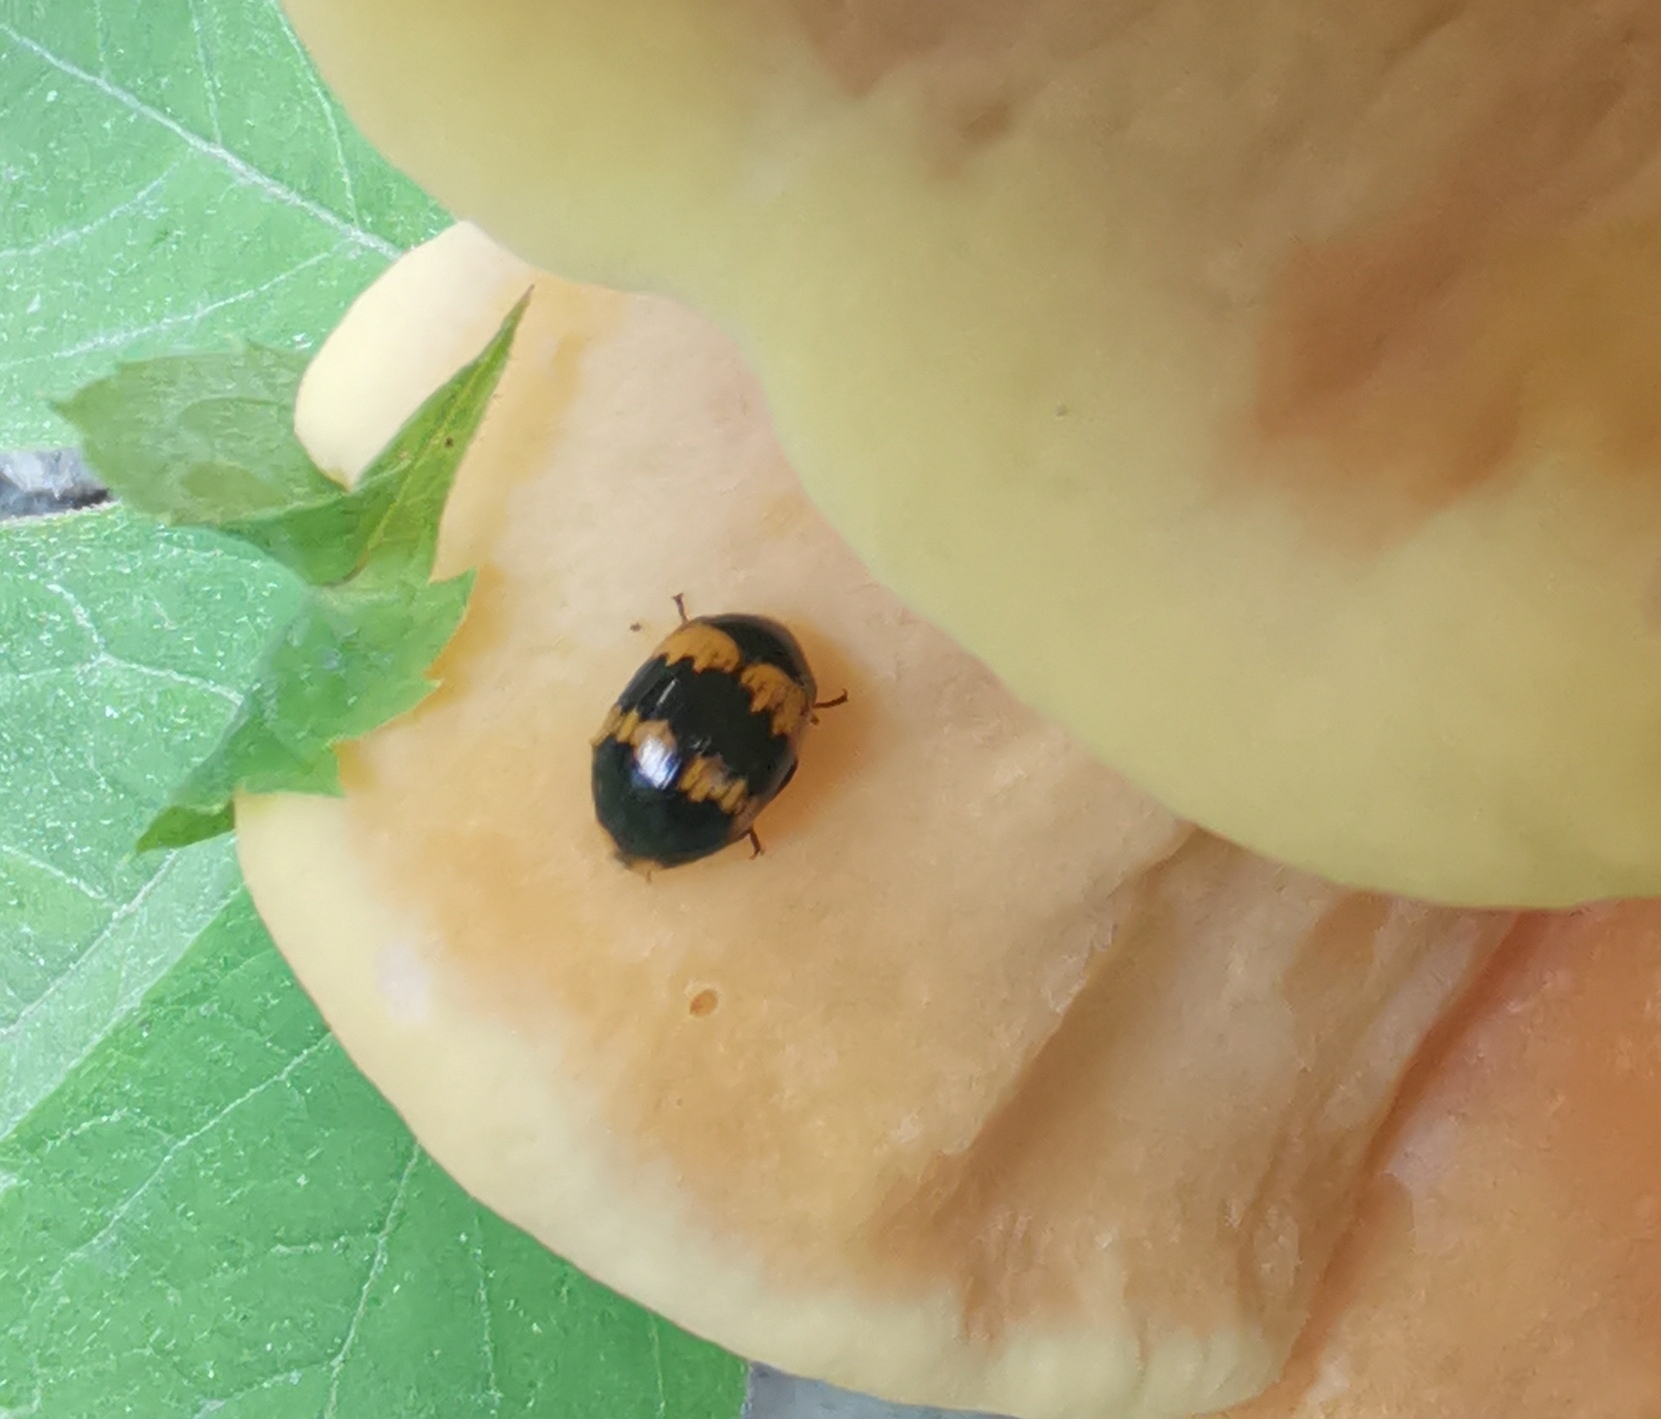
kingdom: Animalia
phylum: Arthropoda
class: Insecta
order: Coleoptera
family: Tenebrionidae
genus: Diaperis
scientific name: Diaperis boleti
